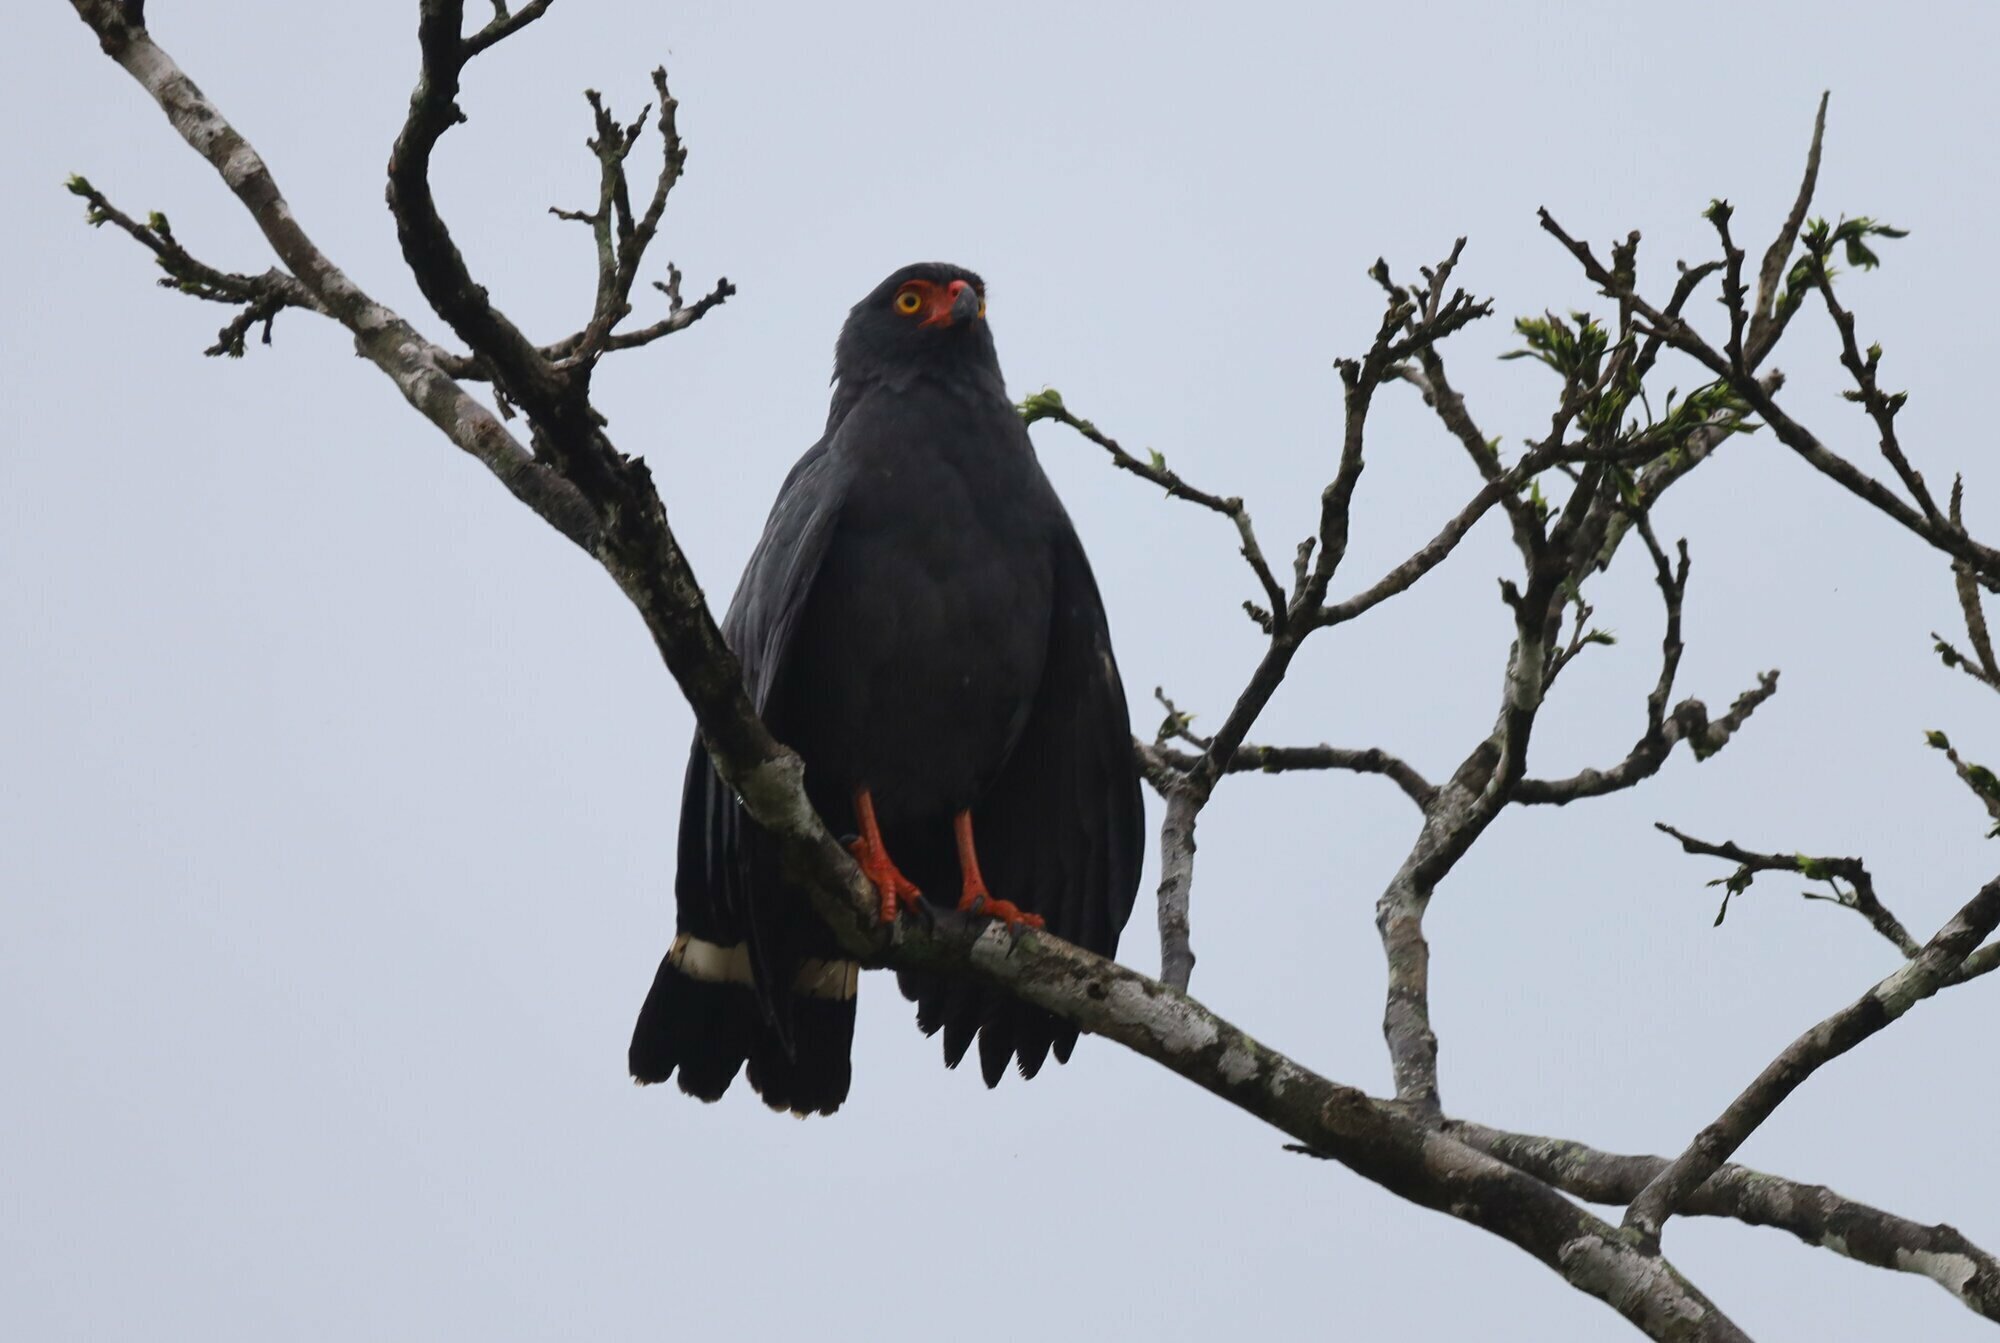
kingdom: Animalia
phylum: Chordata
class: Aves
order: Accipitriformes
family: Accipitridae
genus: Leucopternis
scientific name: Leucopternis schistaceus
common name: Slate-colored hawk
